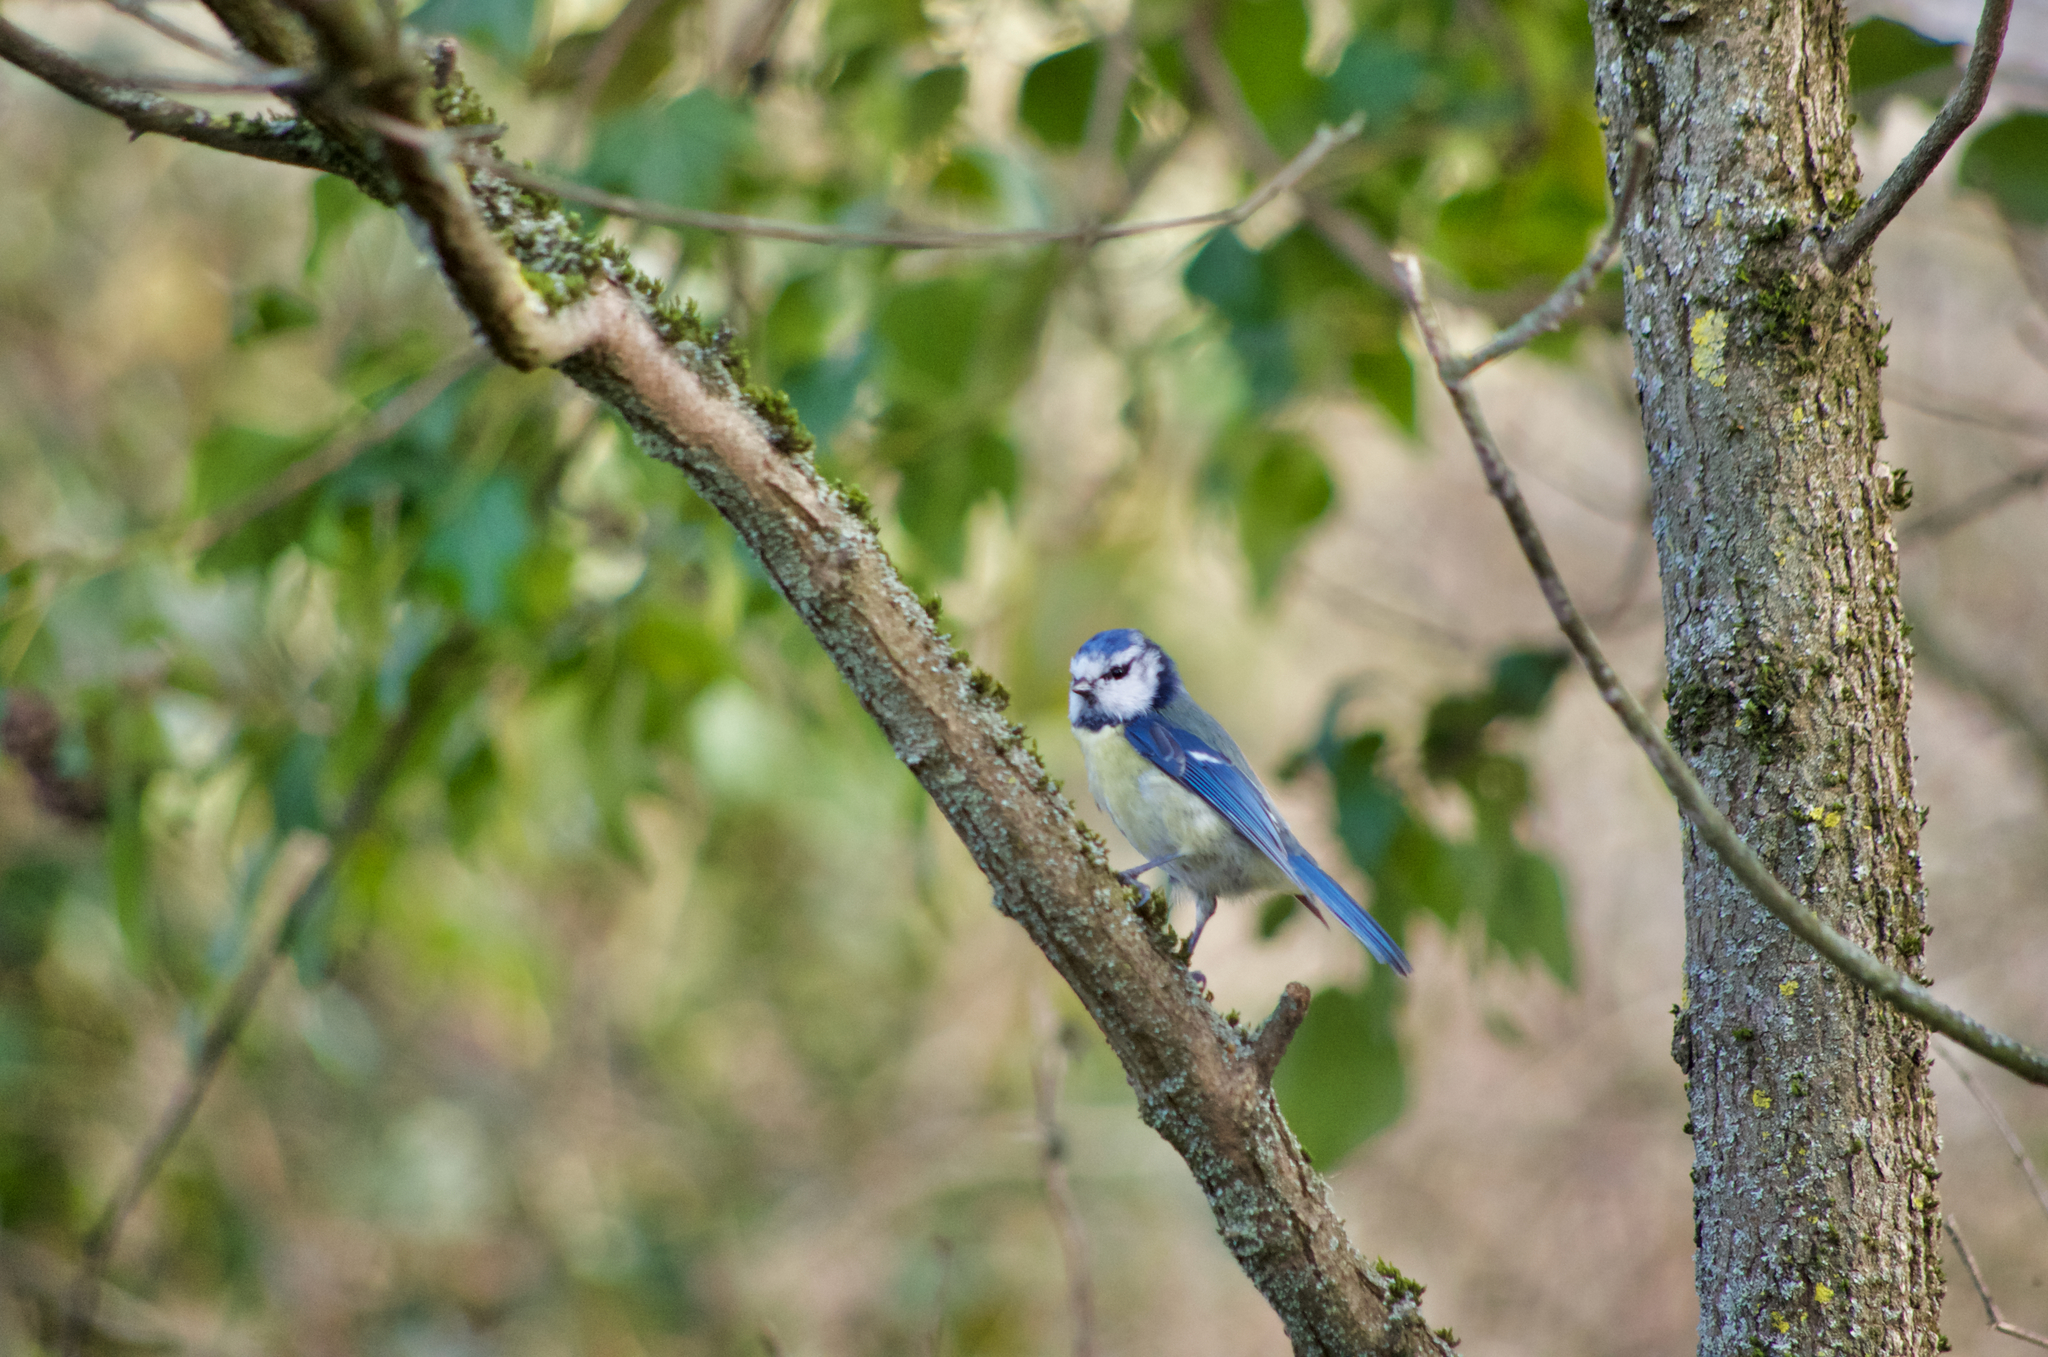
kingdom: Animalia
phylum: Chordata
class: Aves
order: Passeriformes
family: Paridae
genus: Cyanistes
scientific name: Cyanistes caeruleus
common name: Eurasian blue tit
